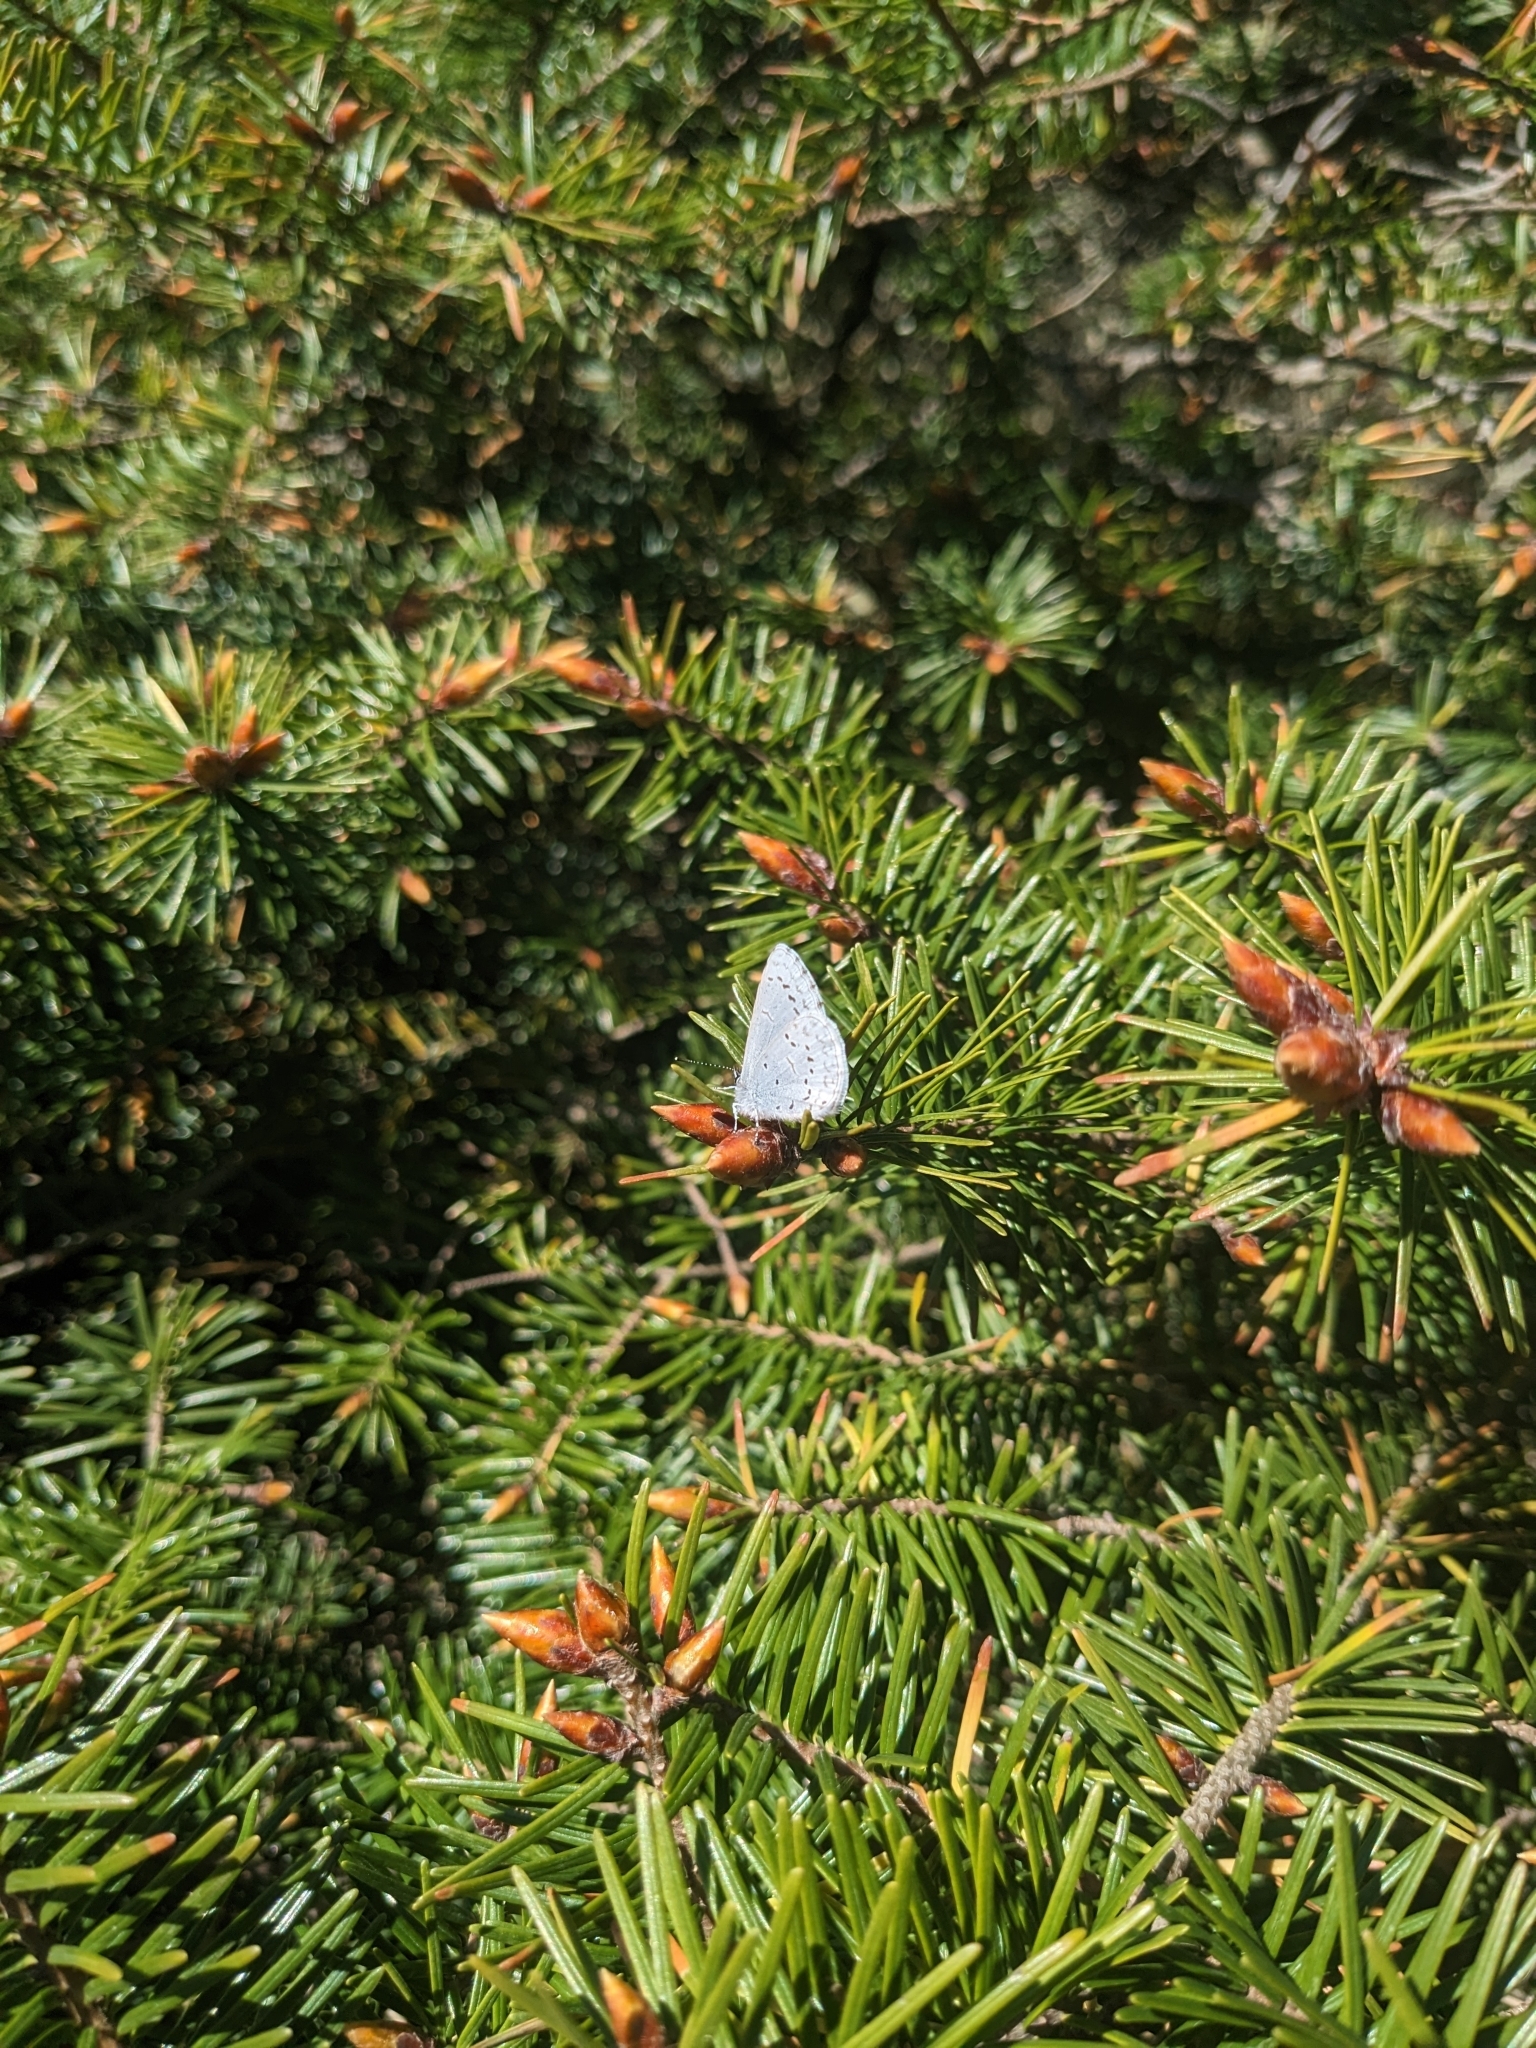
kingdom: Animalia
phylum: Arthropoda
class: Insecta
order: Lepidoptera
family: Lycaenidae
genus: Celastrina
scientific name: Celastrina ladon
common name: Spring azure
